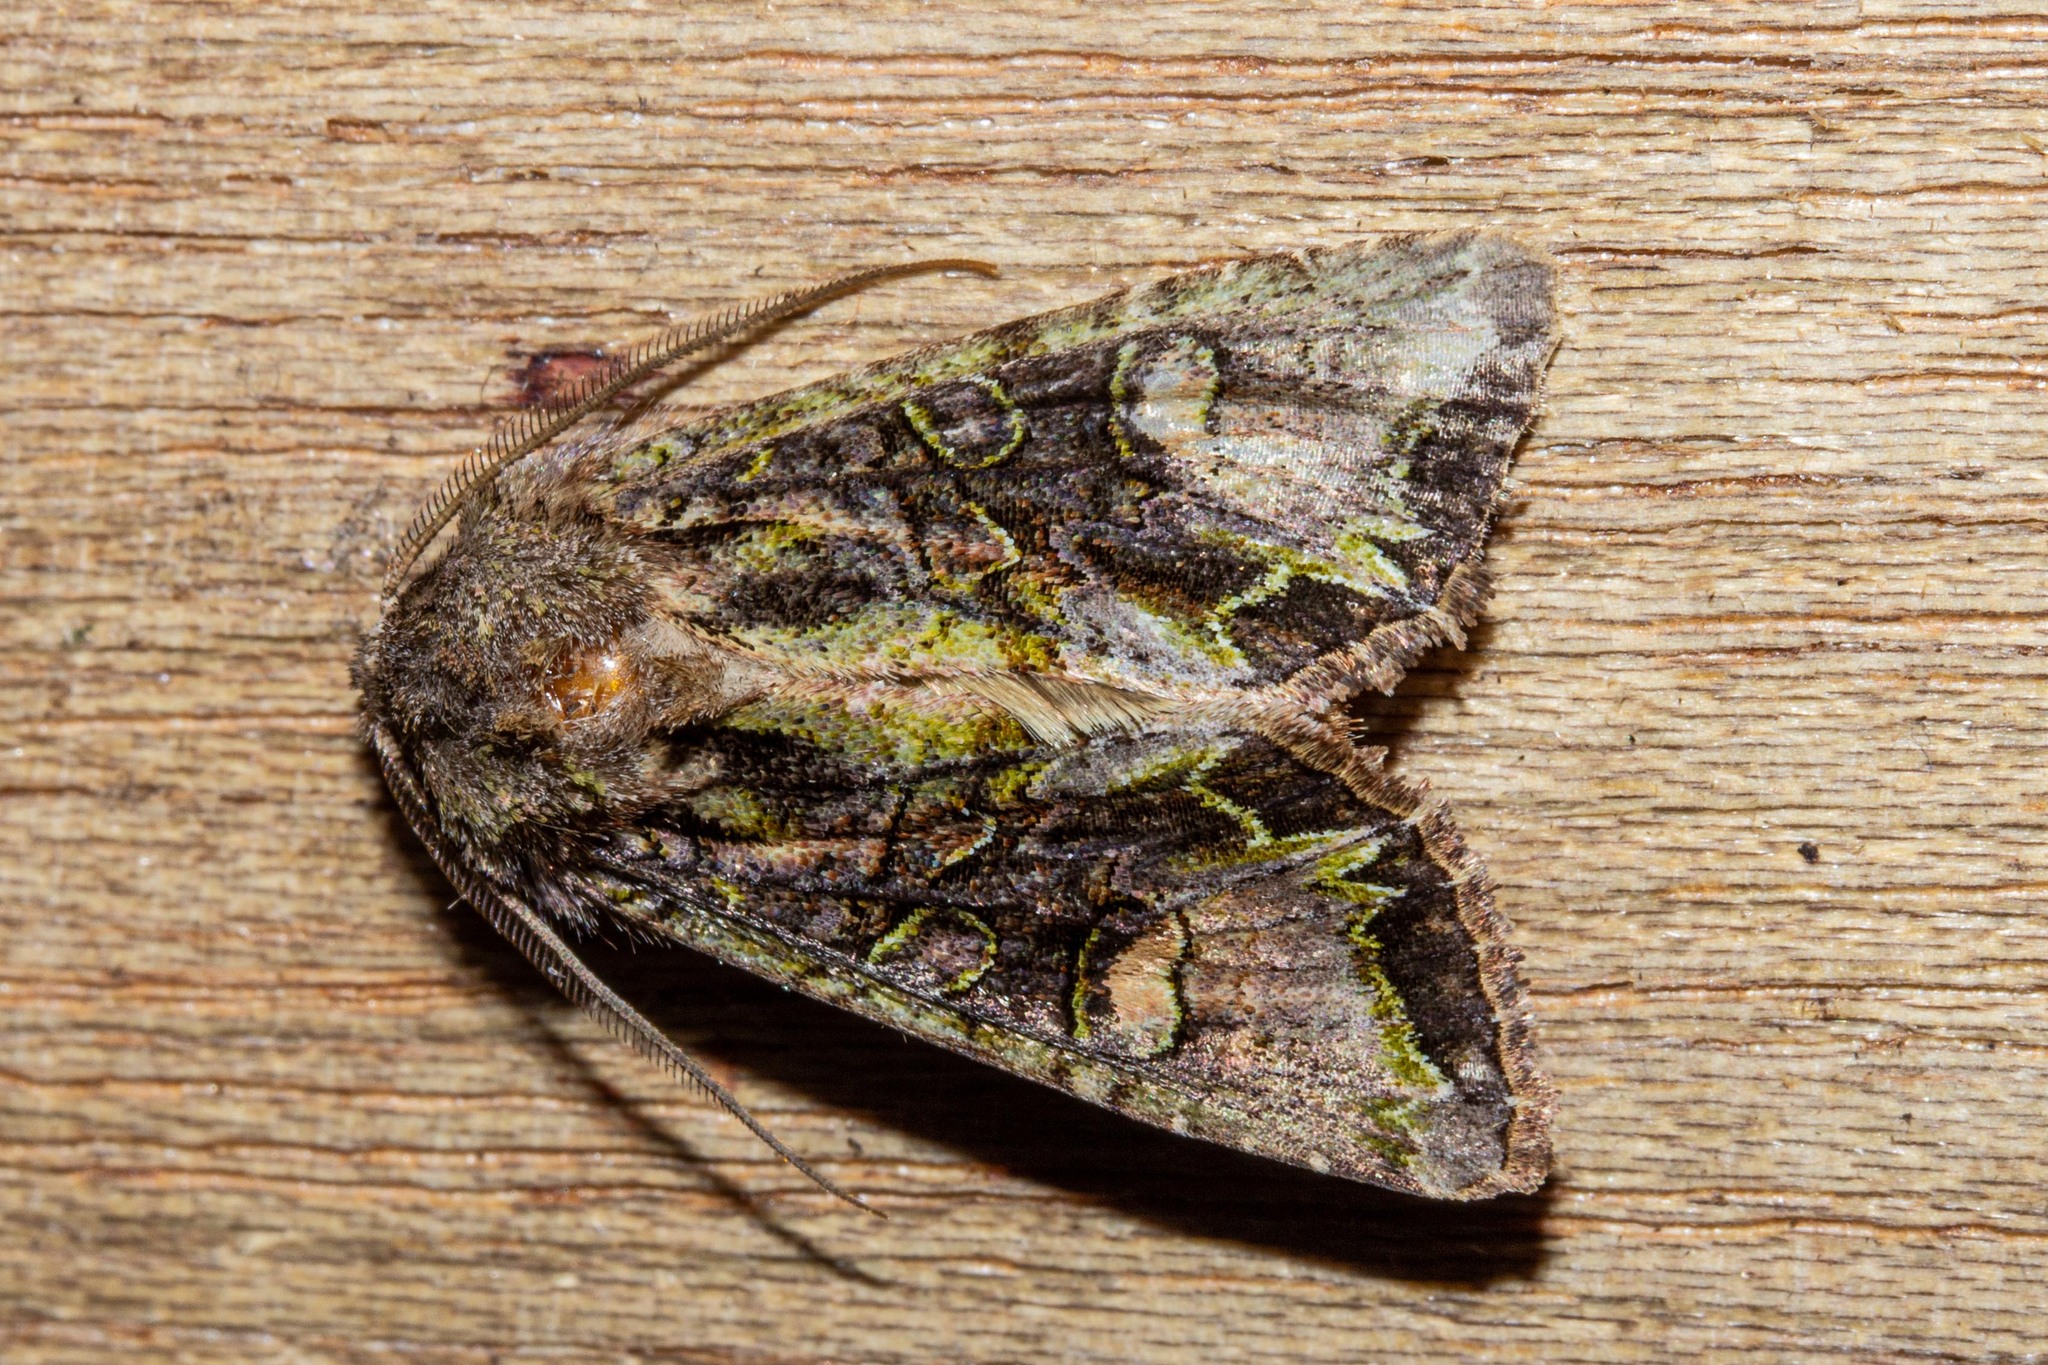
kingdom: Animalia
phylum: Arthropoda
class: Insecta
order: Lepidoptera
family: Noctuidae
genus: Ichneutica
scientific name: Ichneutica skelloni
